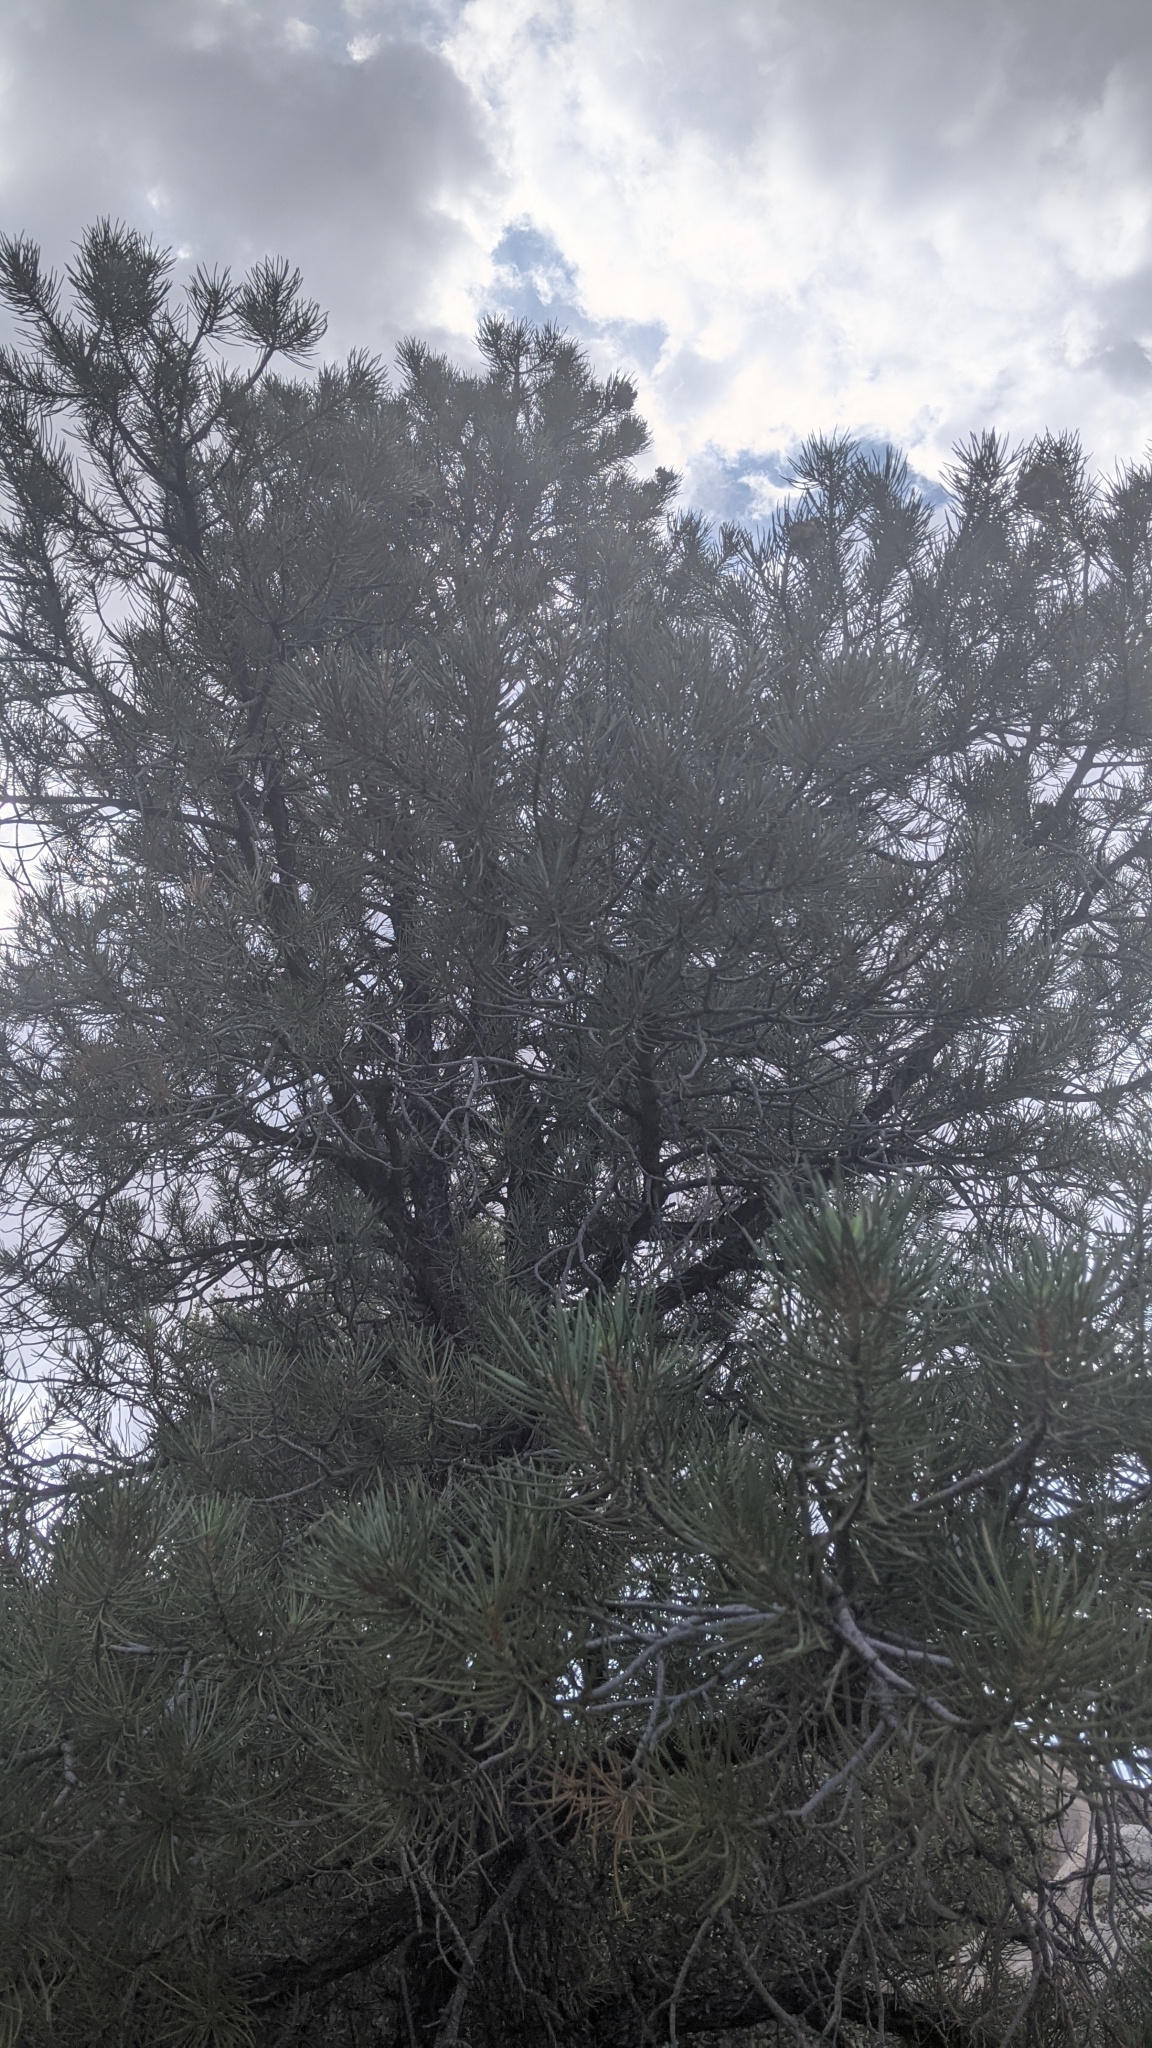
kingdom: Plantae
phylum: Tracheophyta
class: Pinopsida
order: Pinales
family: Pinaceae
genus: Pinus
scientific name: Pinus monophylla
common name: One-leaved nut pine
